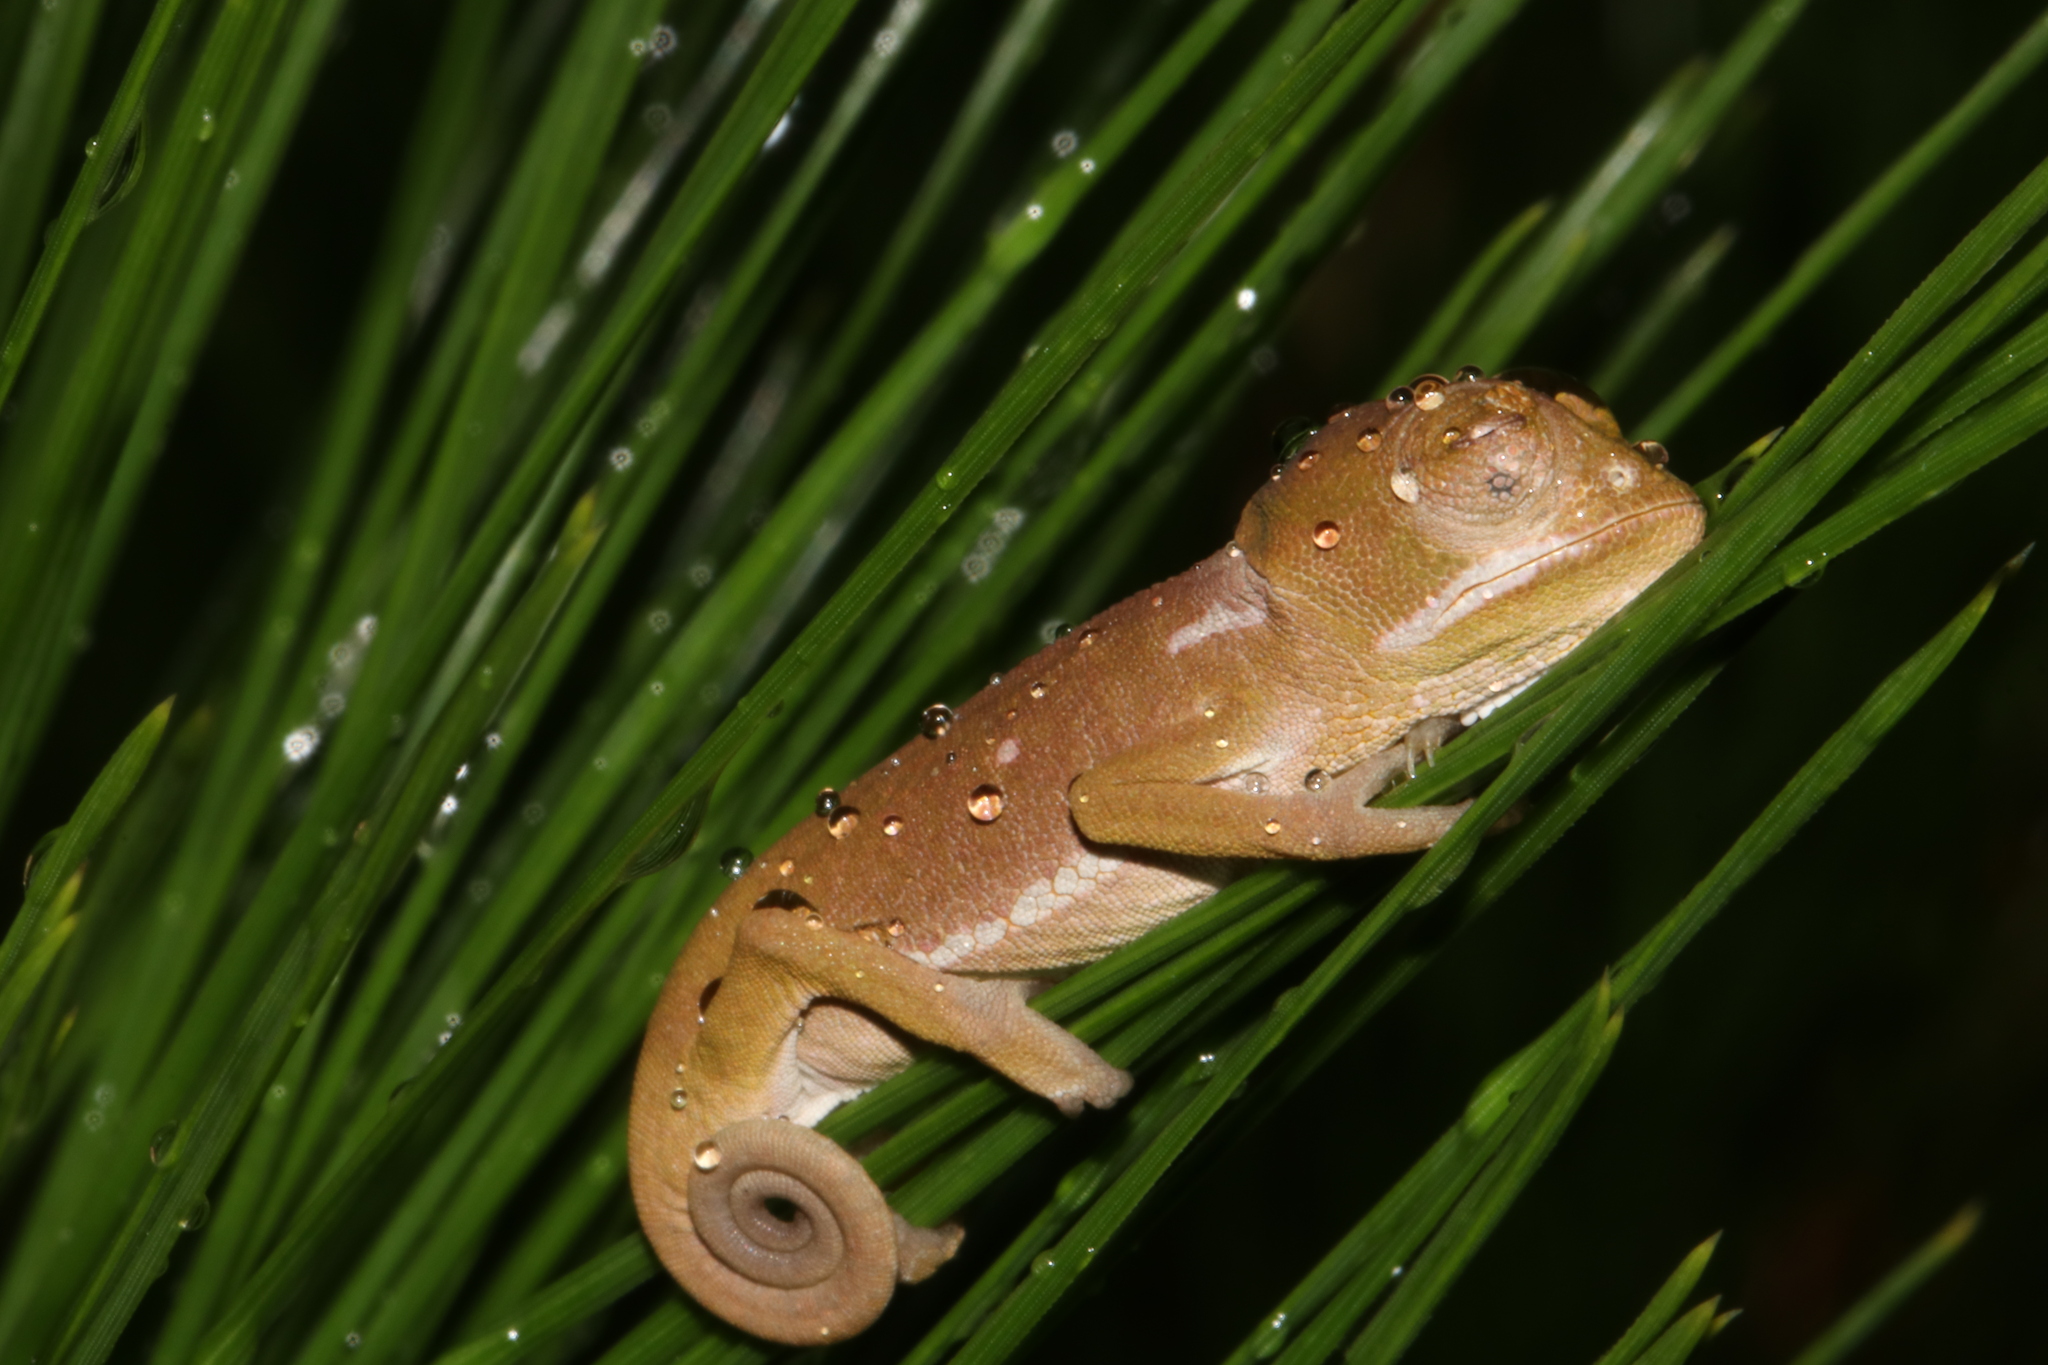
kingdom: Animalia
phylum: Chordata
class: Squamata
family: Chamaeleonidae
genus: Chamaeleo
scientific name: Chamaeleo dilepis
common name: Flapneck chameleon
